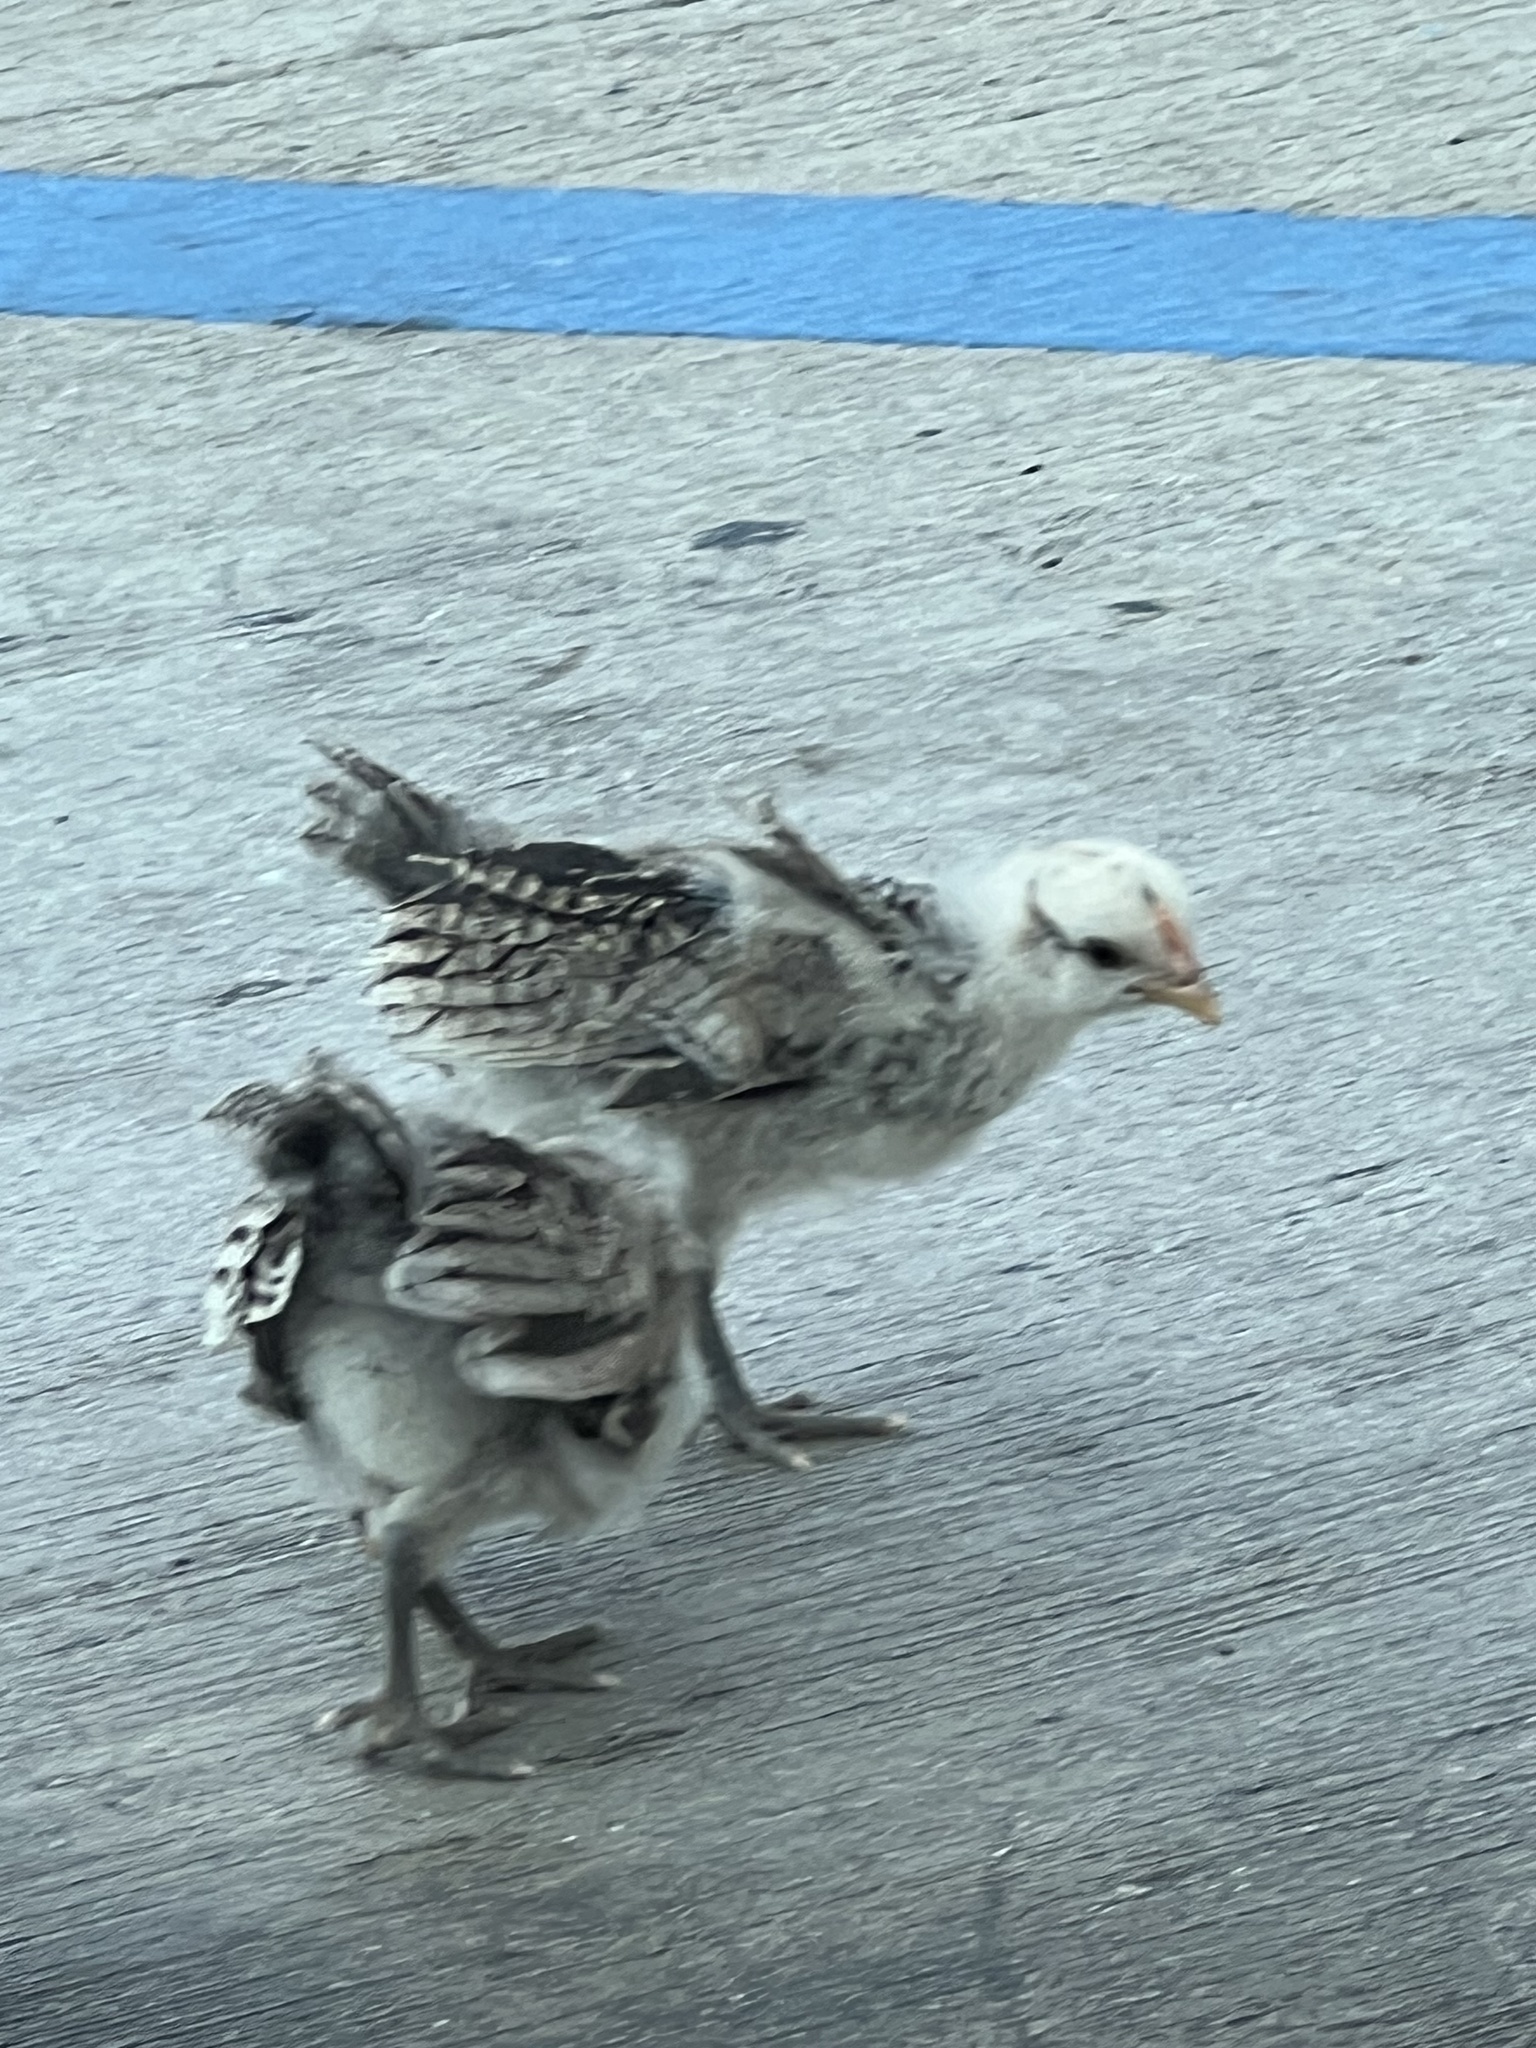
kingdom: Animalia
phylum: Chordata
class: Aves
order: Galliformes
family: Phasianidae
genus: Gallus
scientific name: Gallus gallus
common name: Red junglefowl
